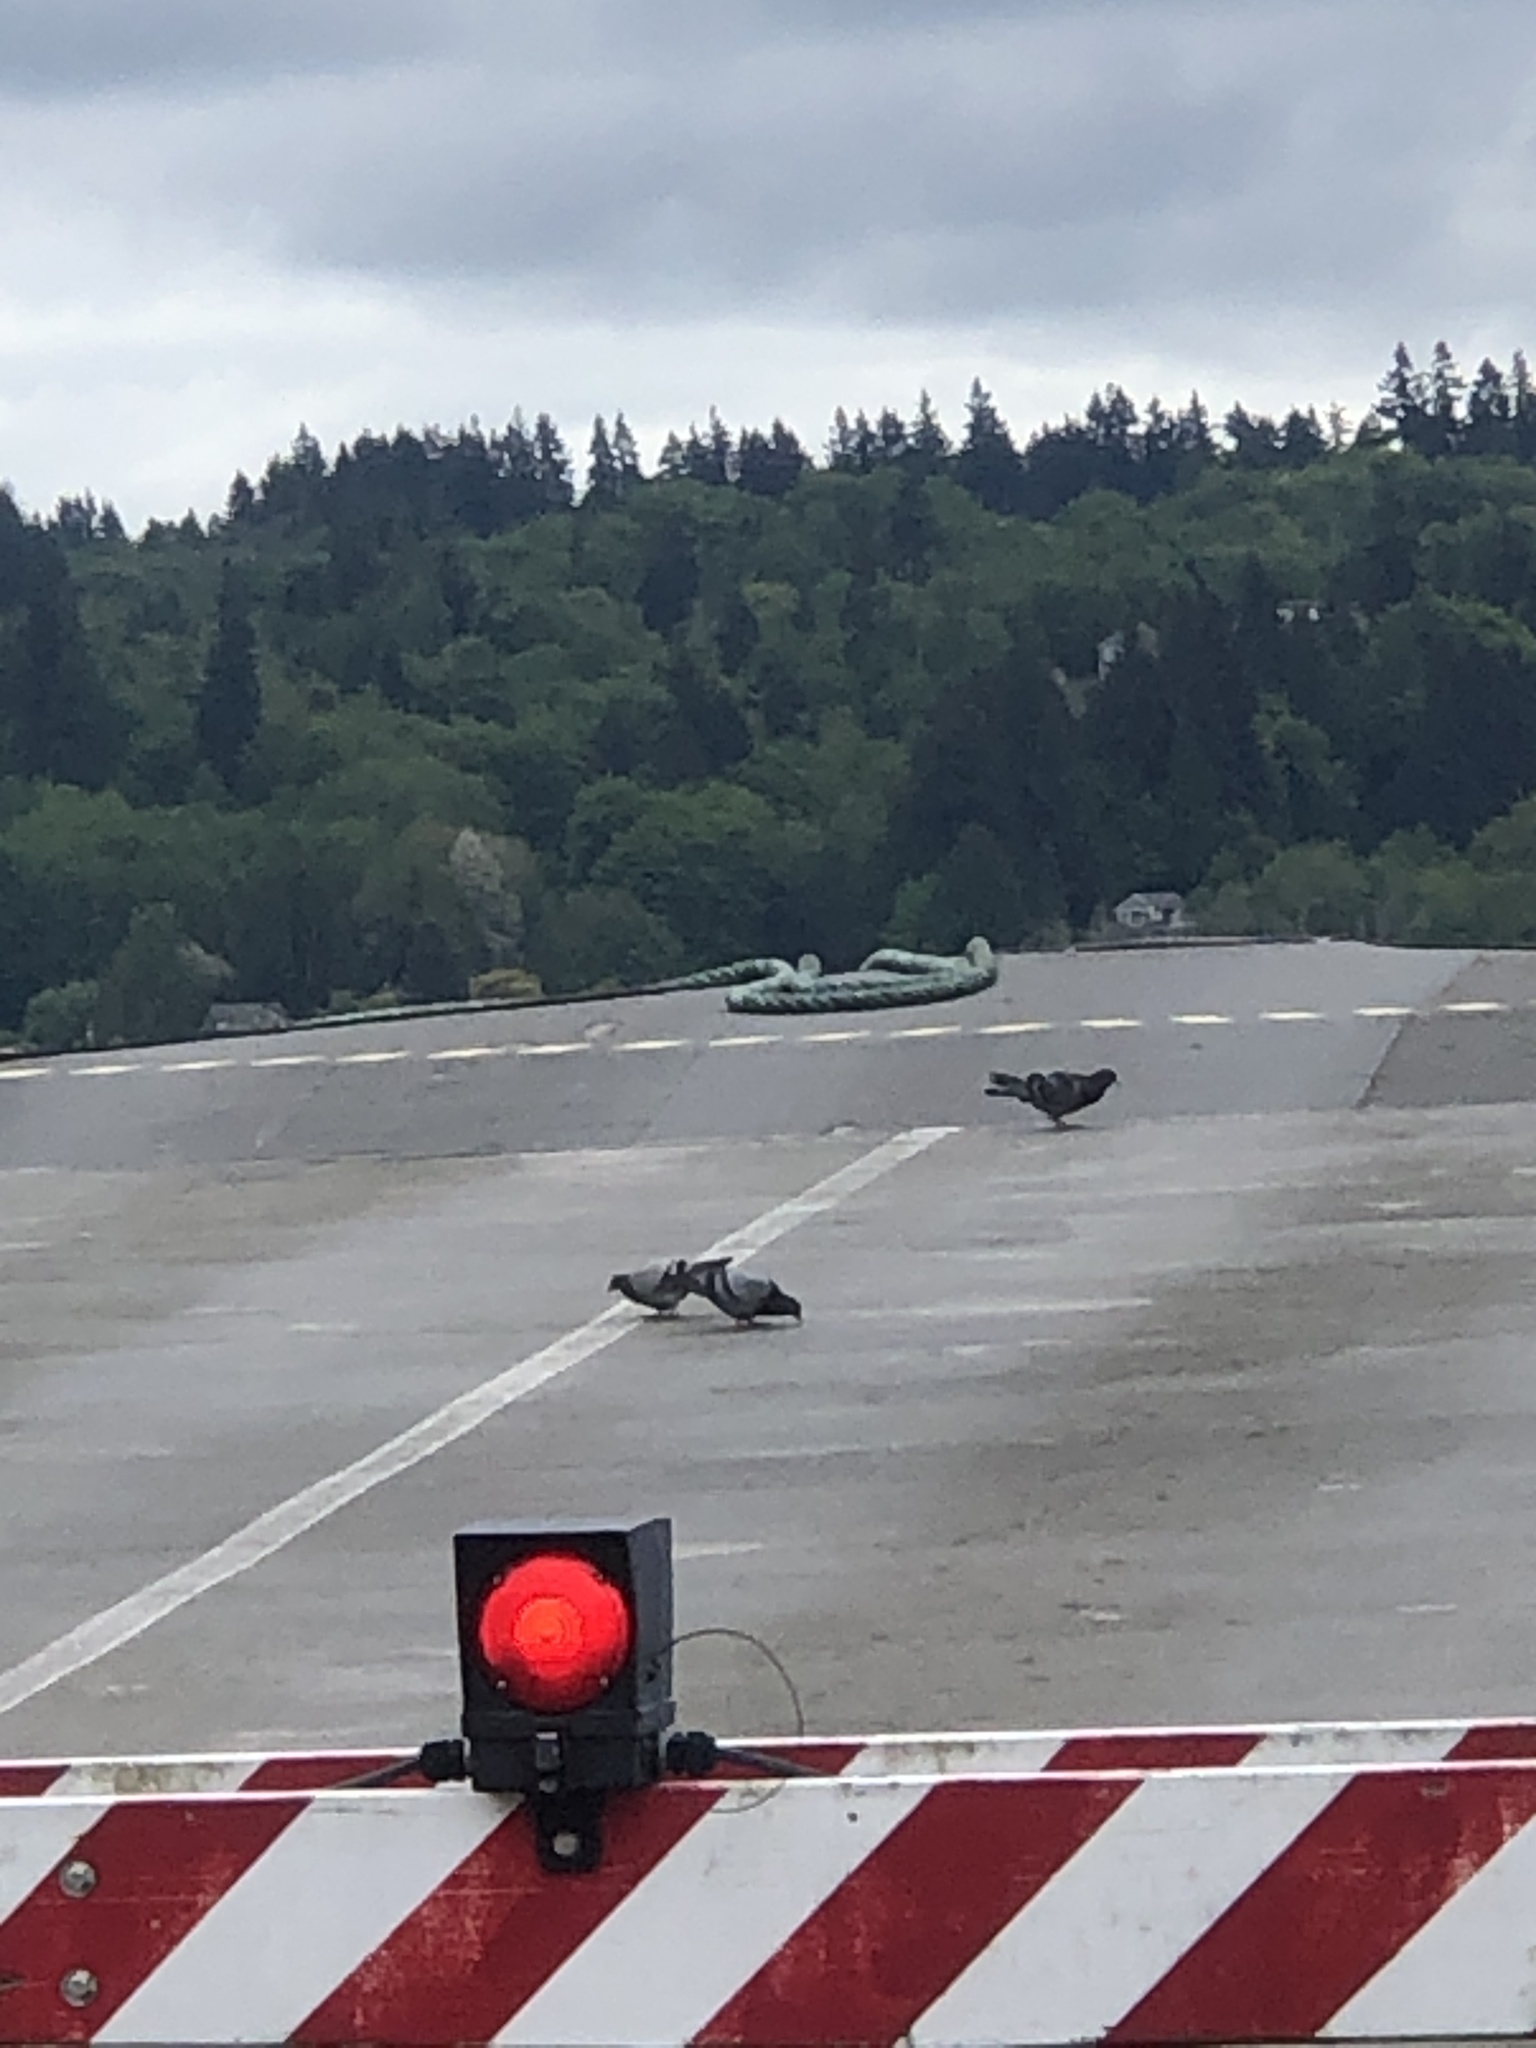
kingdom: Animalia
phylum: Chordata
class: Aves
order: Columbiformes
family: Columbidae
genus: Columba
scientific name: Columba livia
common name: Rock pigeon
